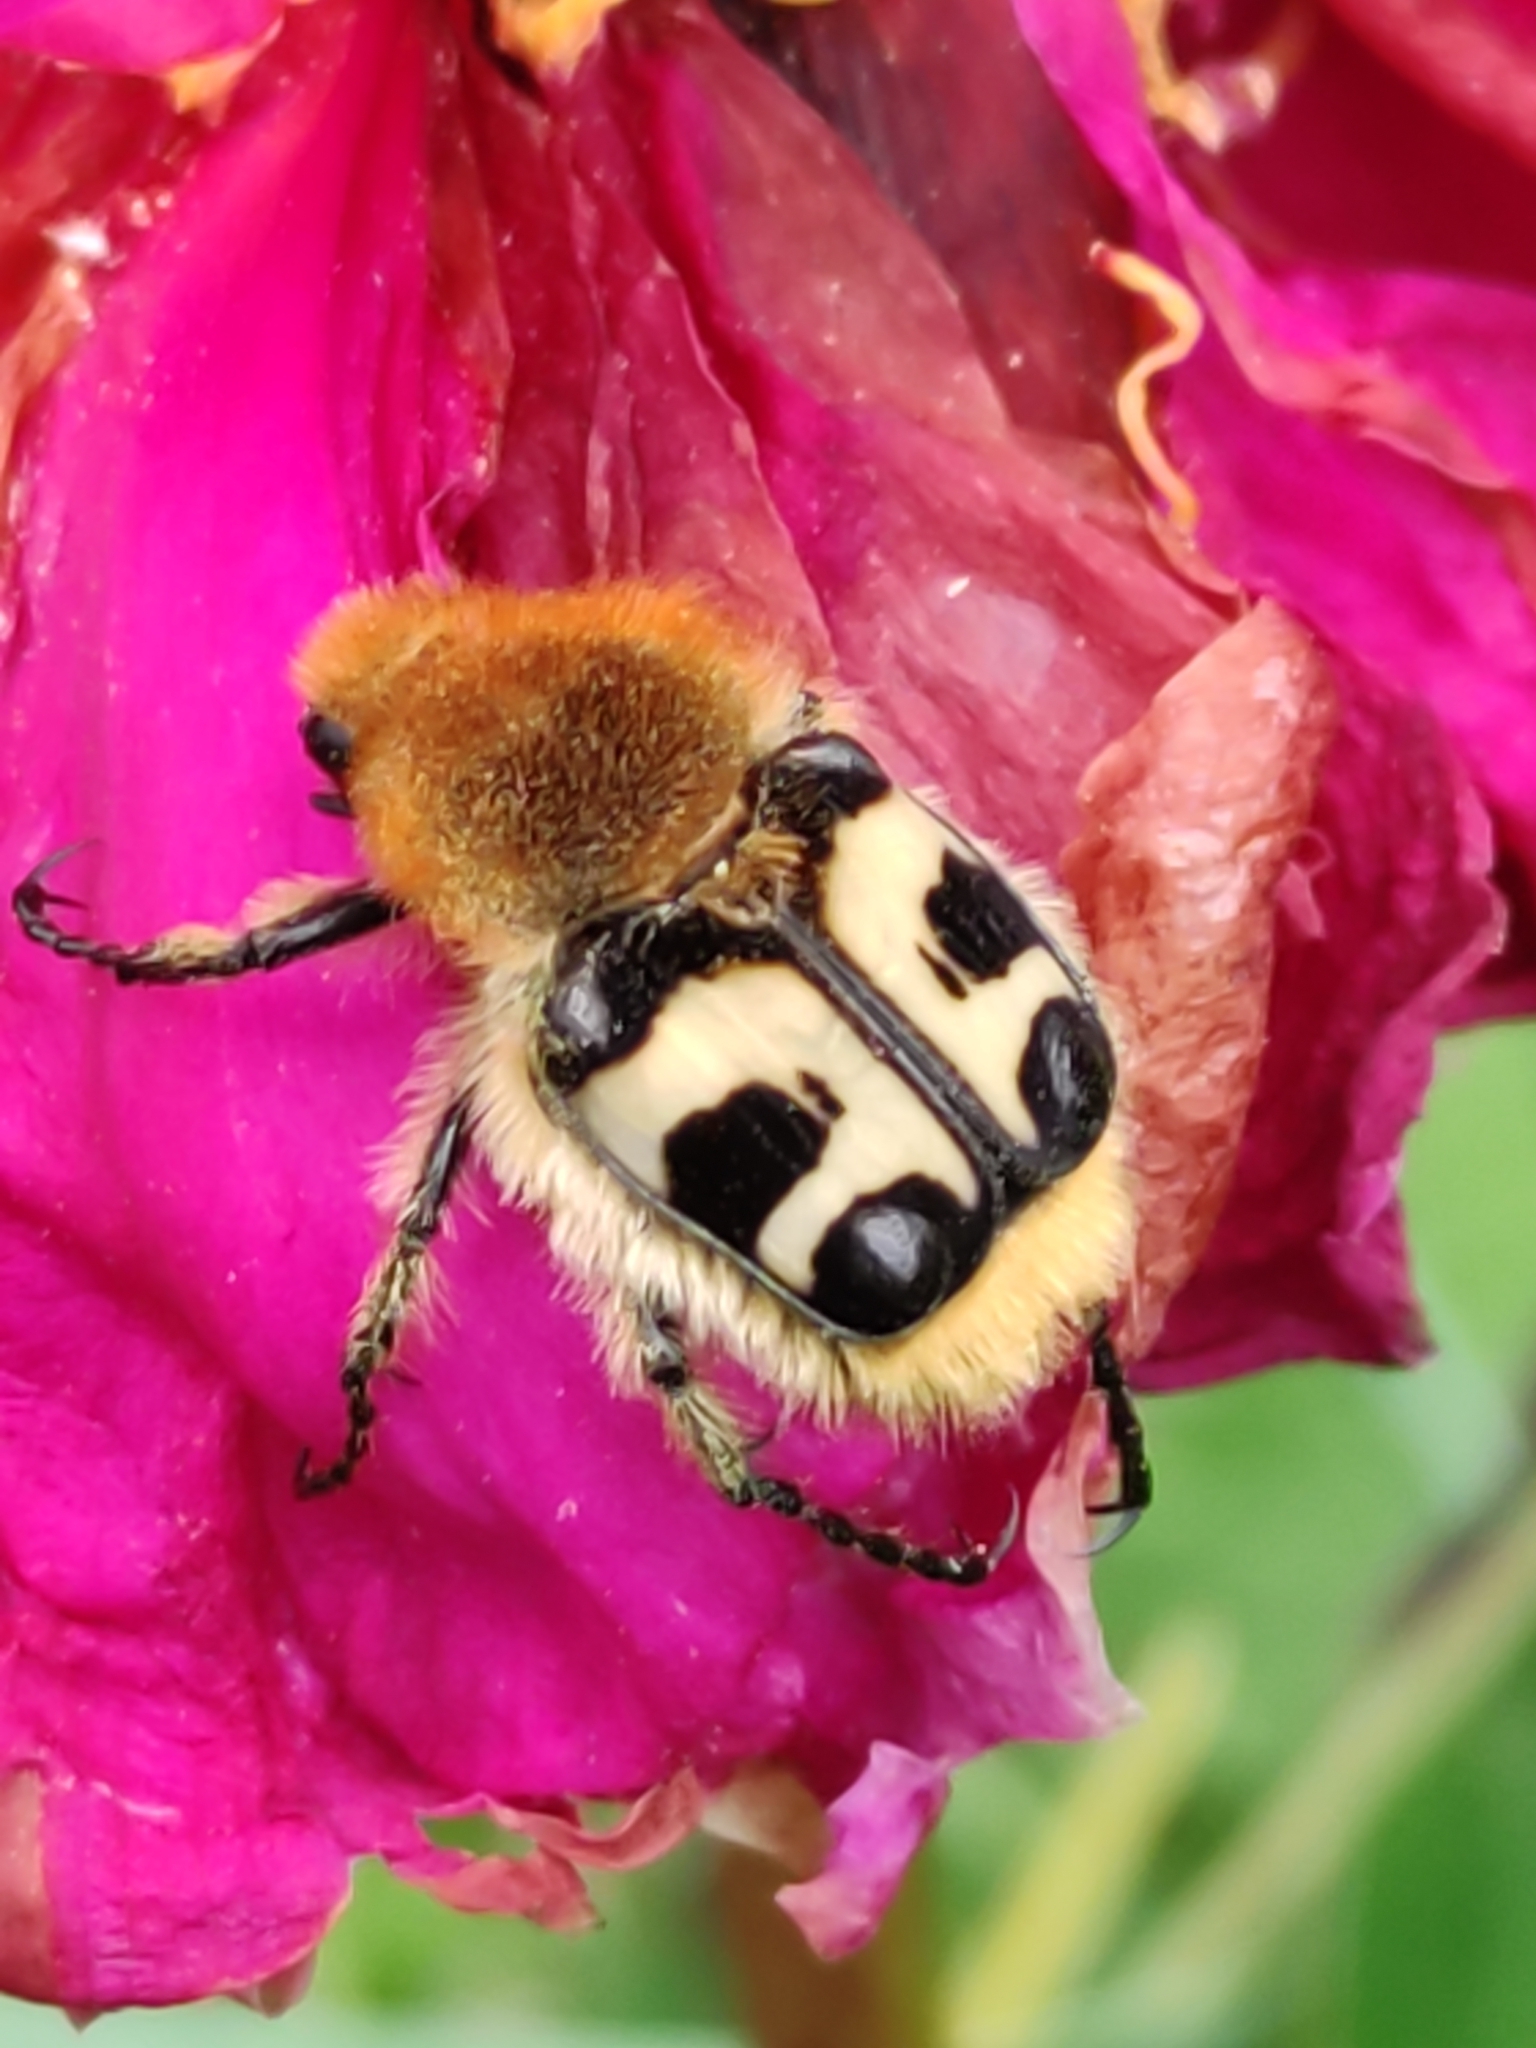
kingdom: Animalia
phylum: Arthropoda
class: Insecta
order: Coleoptera
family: Scarabaeidae
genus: Trichius
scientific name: Trichius fasciatus
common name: Bee beetle
